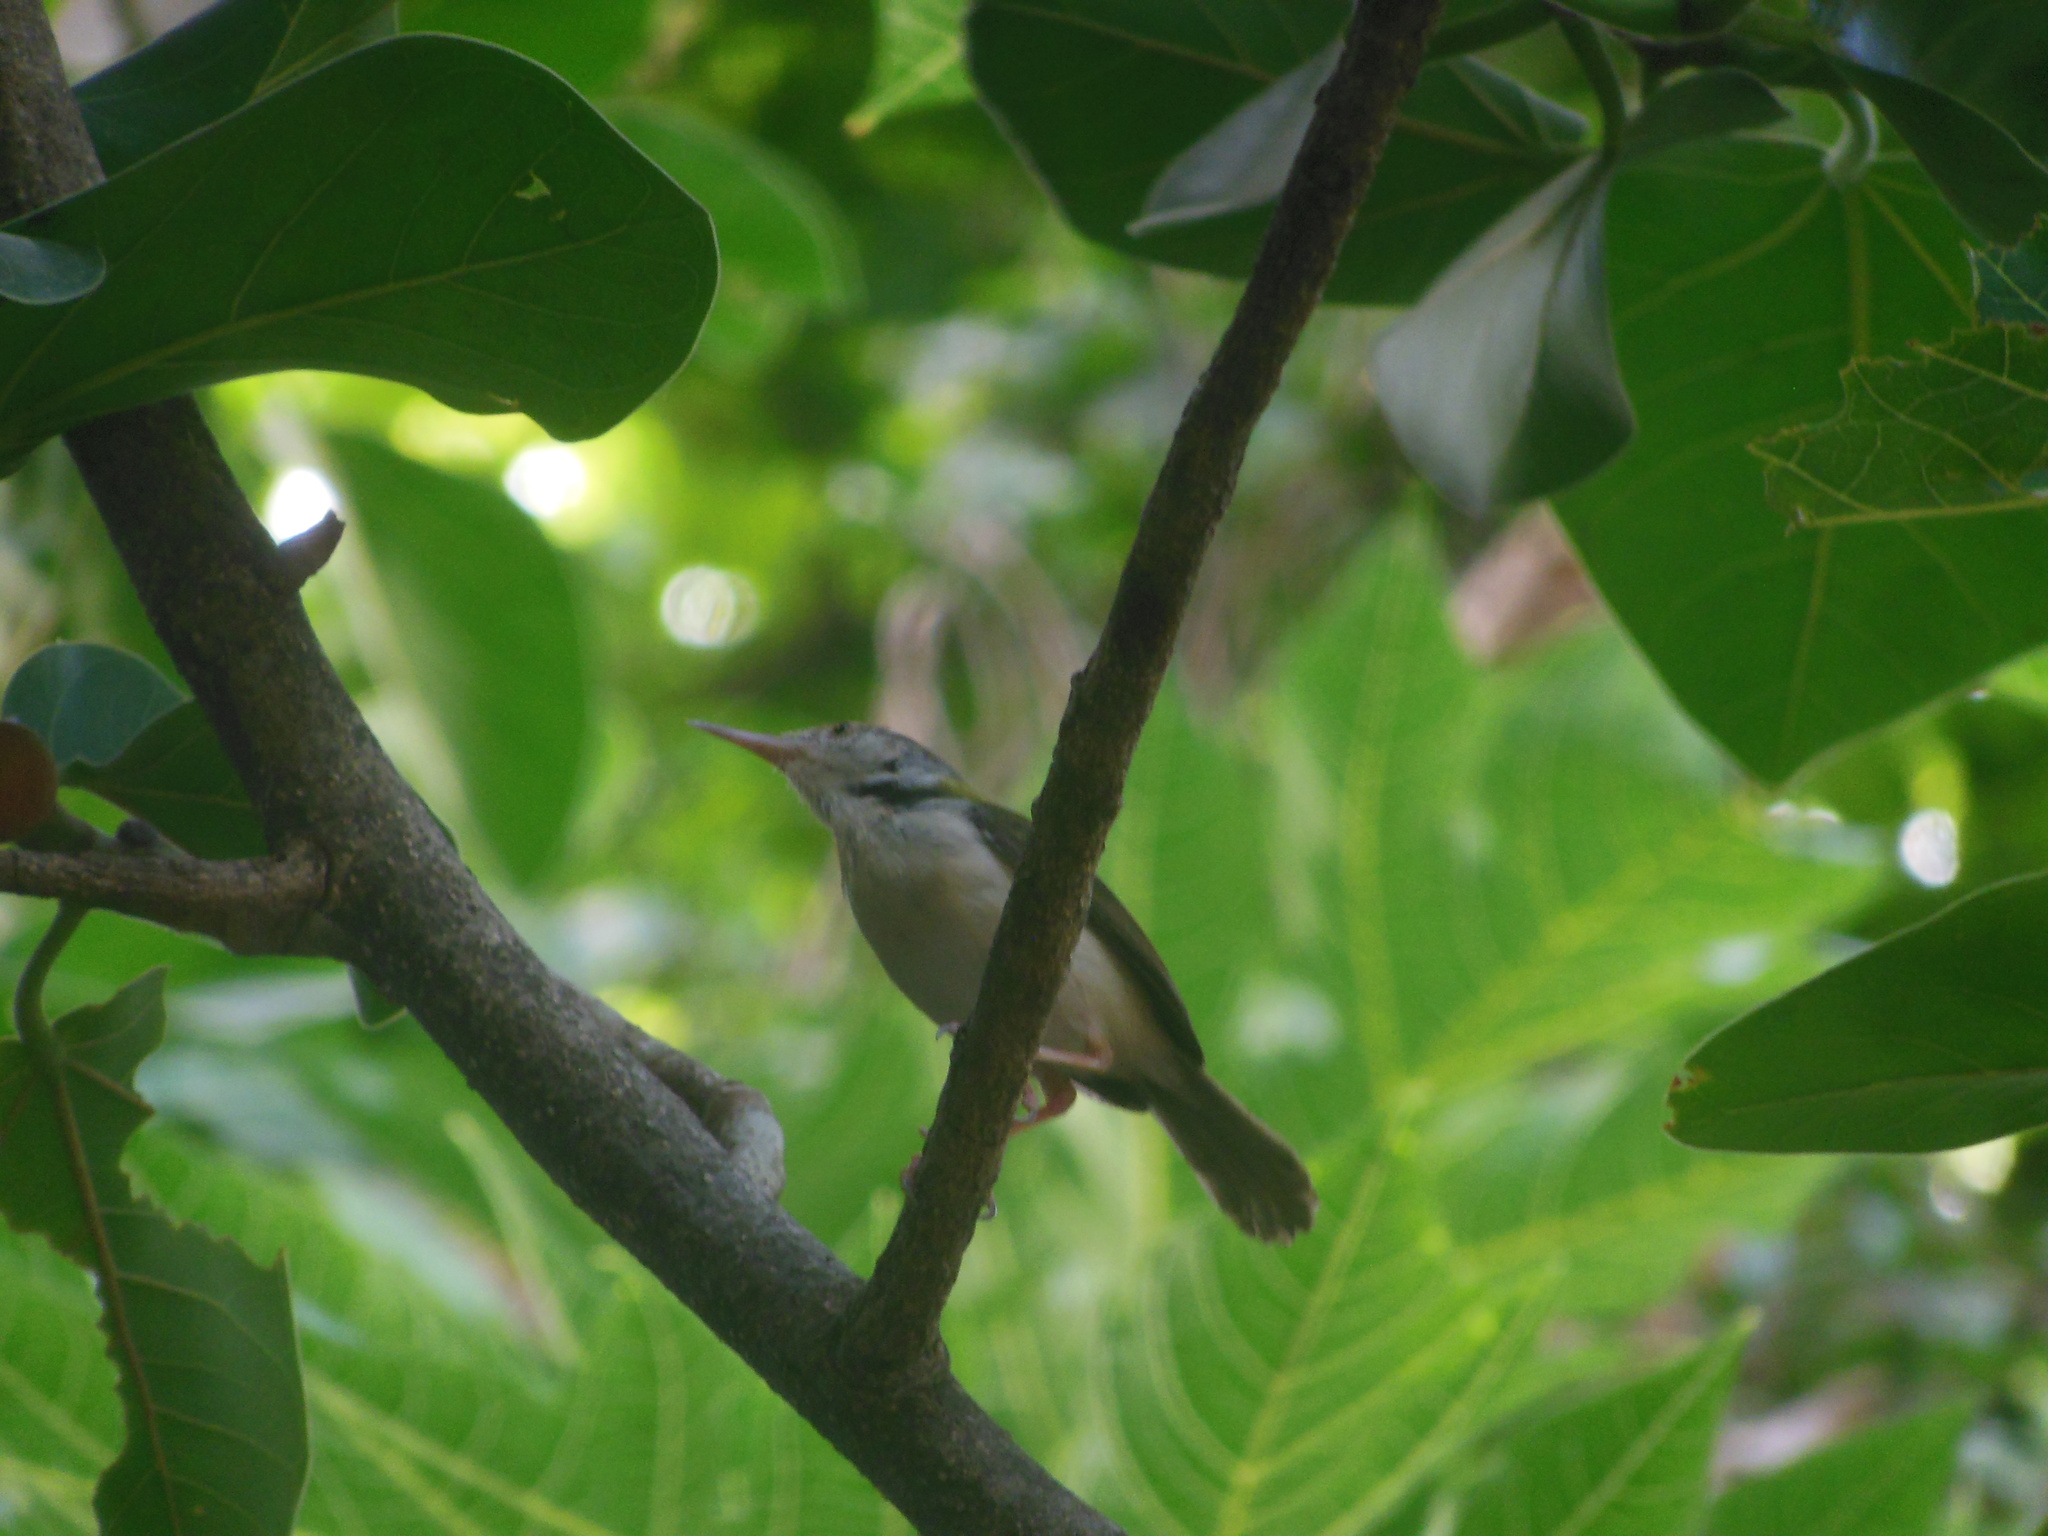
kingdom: Animalia
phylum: Chordata
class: Aves
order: Passeriformes
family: Cisticolidae
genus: Orthotomus
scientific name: Orthotomus sutorius
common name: Common tailorbird
